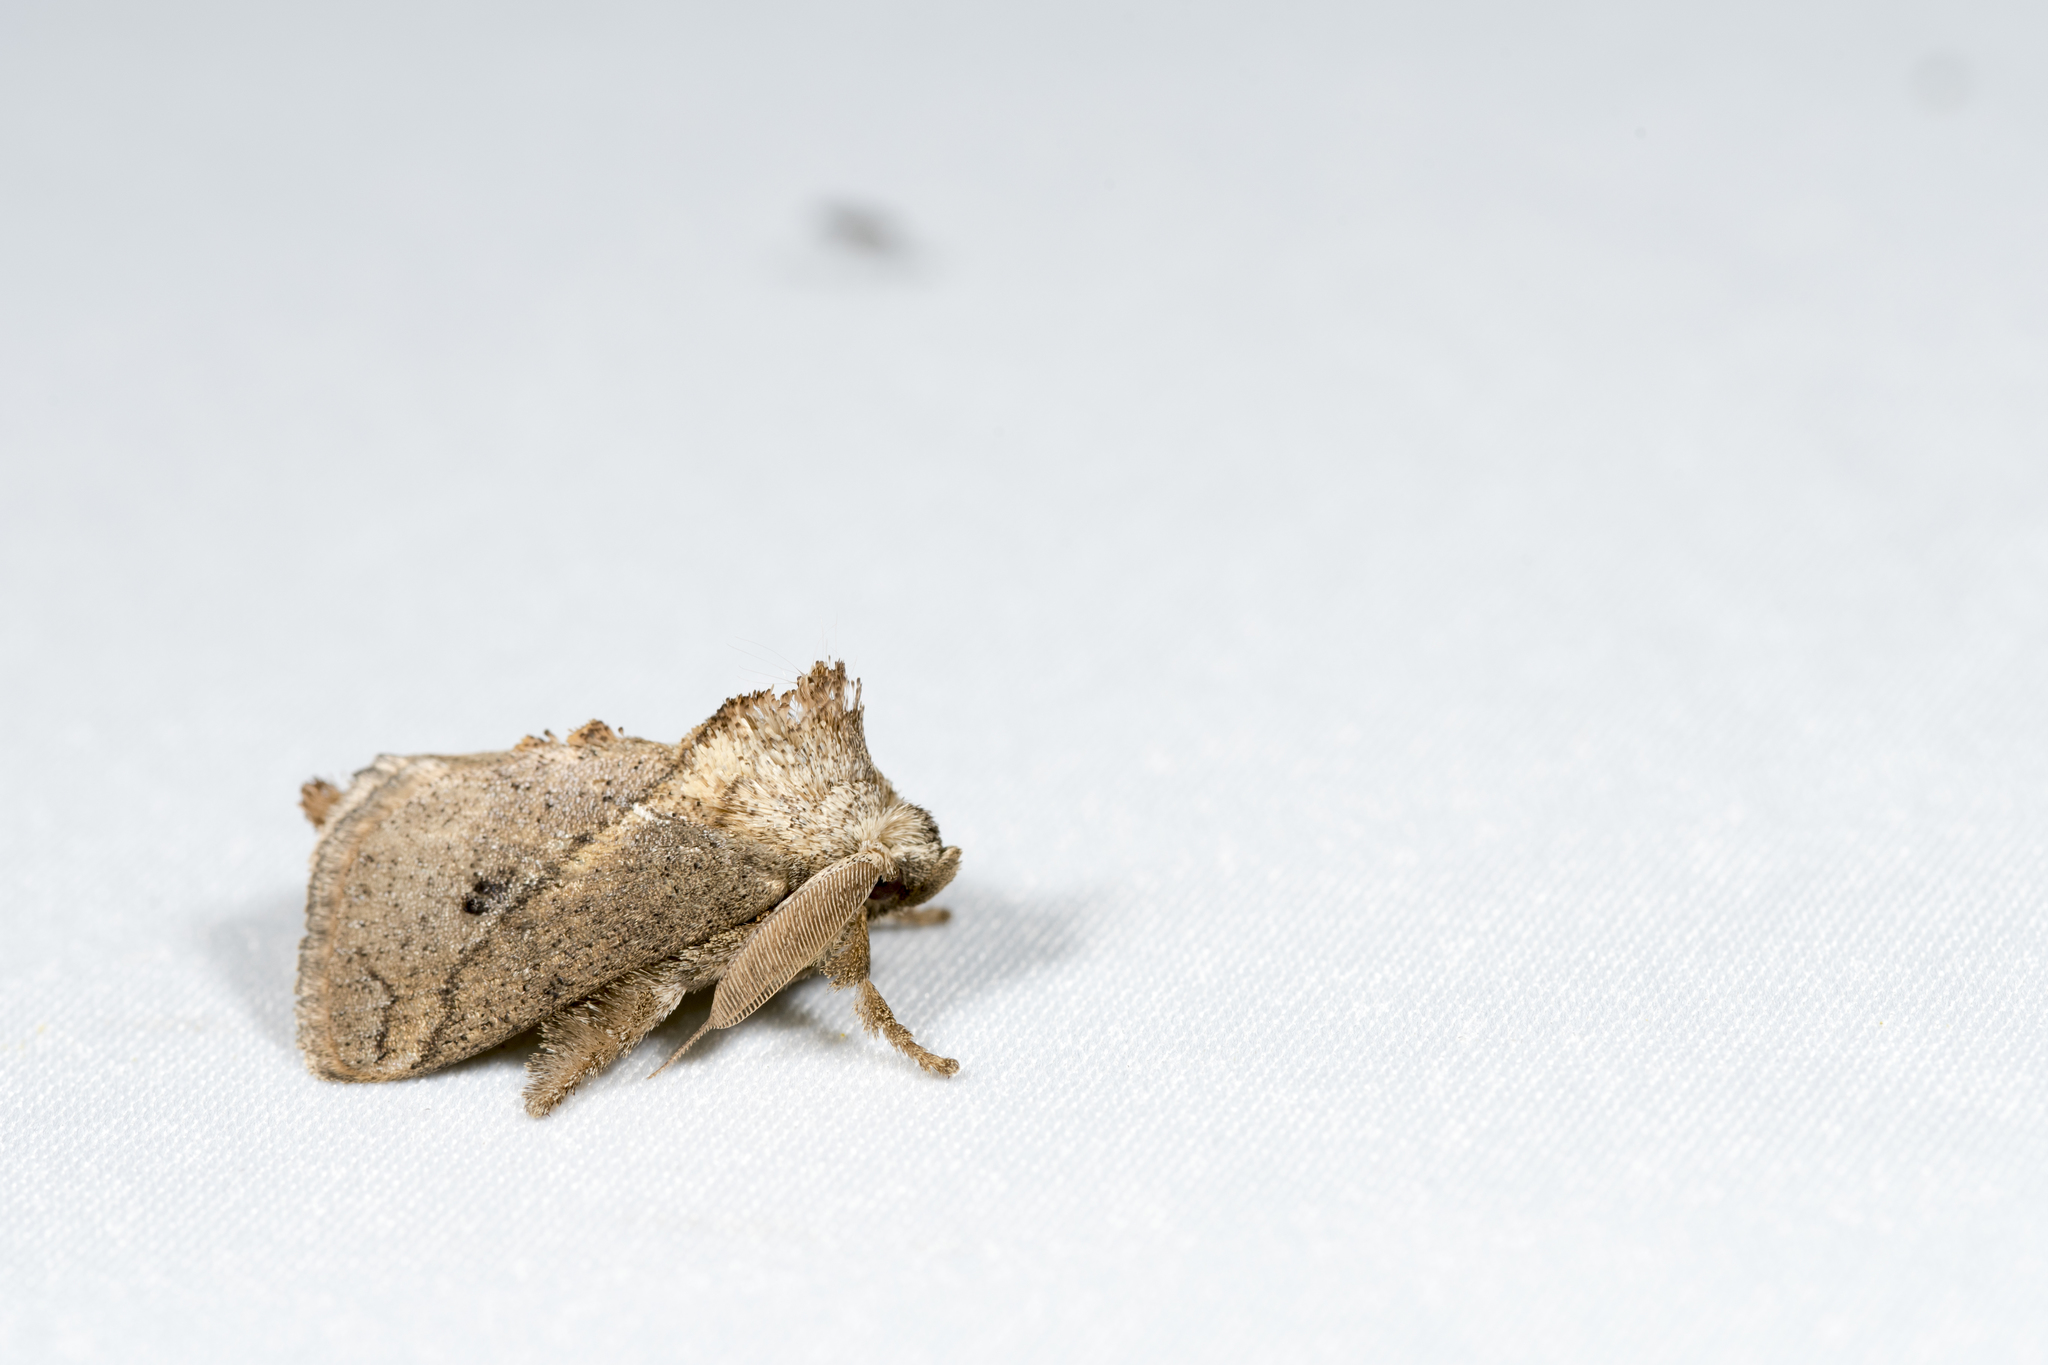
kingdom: Animalia
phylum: Arthropoda
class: Insecta
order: Lepidoptera
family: Limacodidae
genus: Susica
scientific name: Susica sinensis
